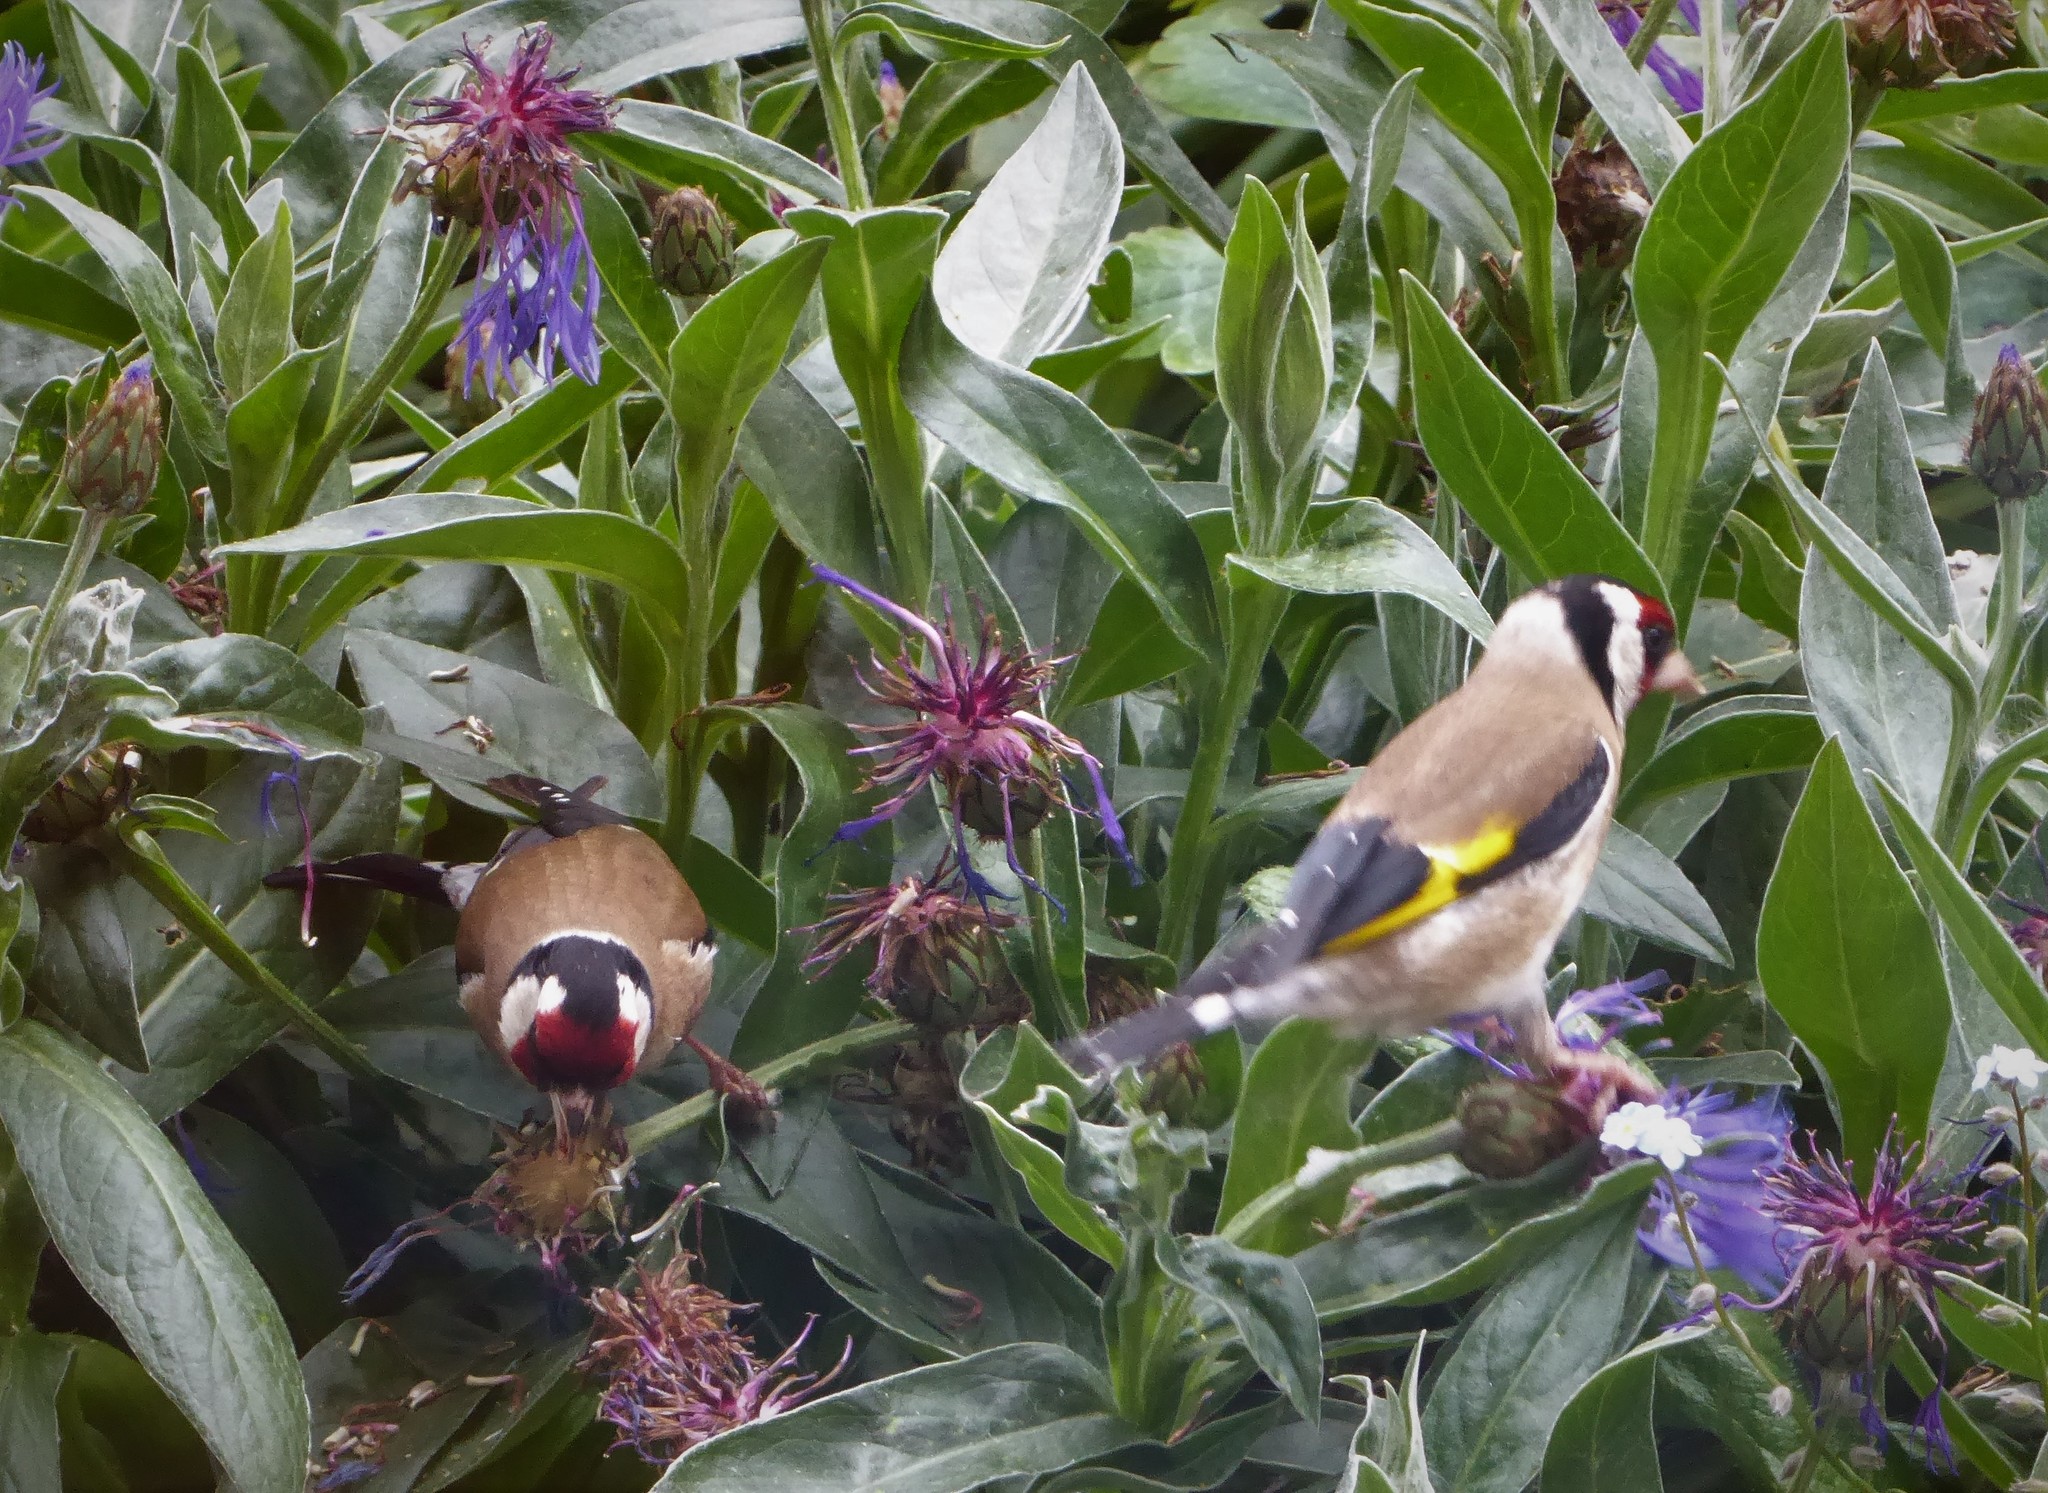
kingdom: Animalia
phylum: Chordata
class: Aves
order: Passeriformes
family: Fringillidae
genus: Carduelis
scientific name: Carduelis carduelis
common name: European goldfinch
